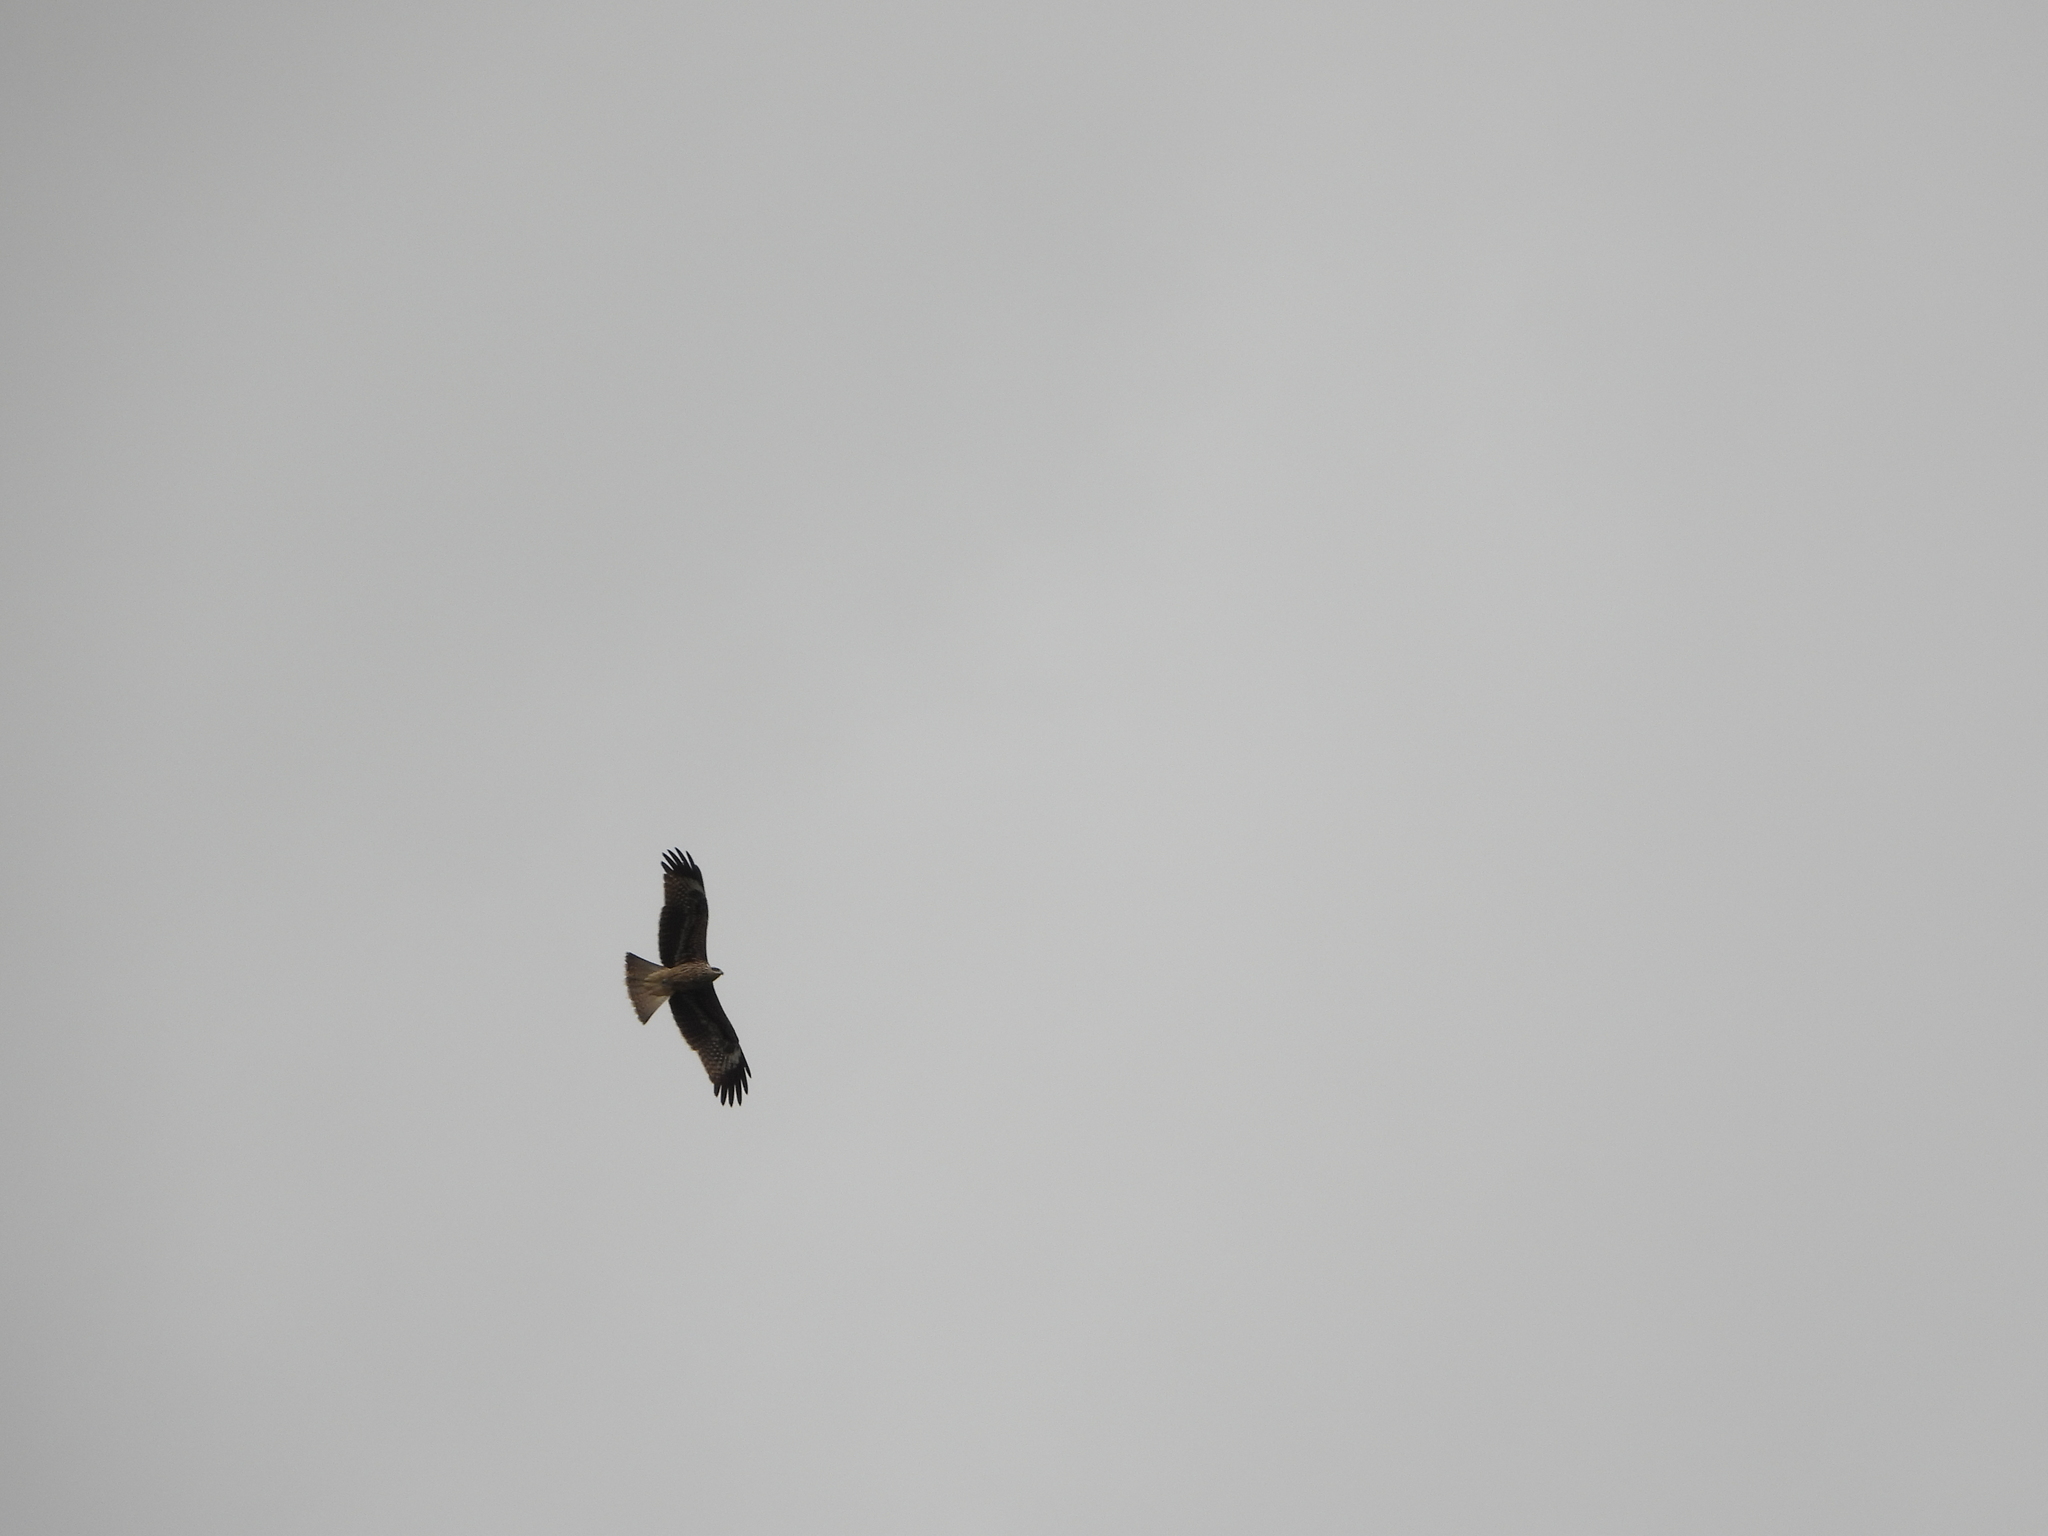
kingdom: Animalia
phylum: Chordata
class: Aves
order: Accipitriformes
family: Accipitridae
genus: Milvus
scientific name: Milvus migrans
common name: Black kite
